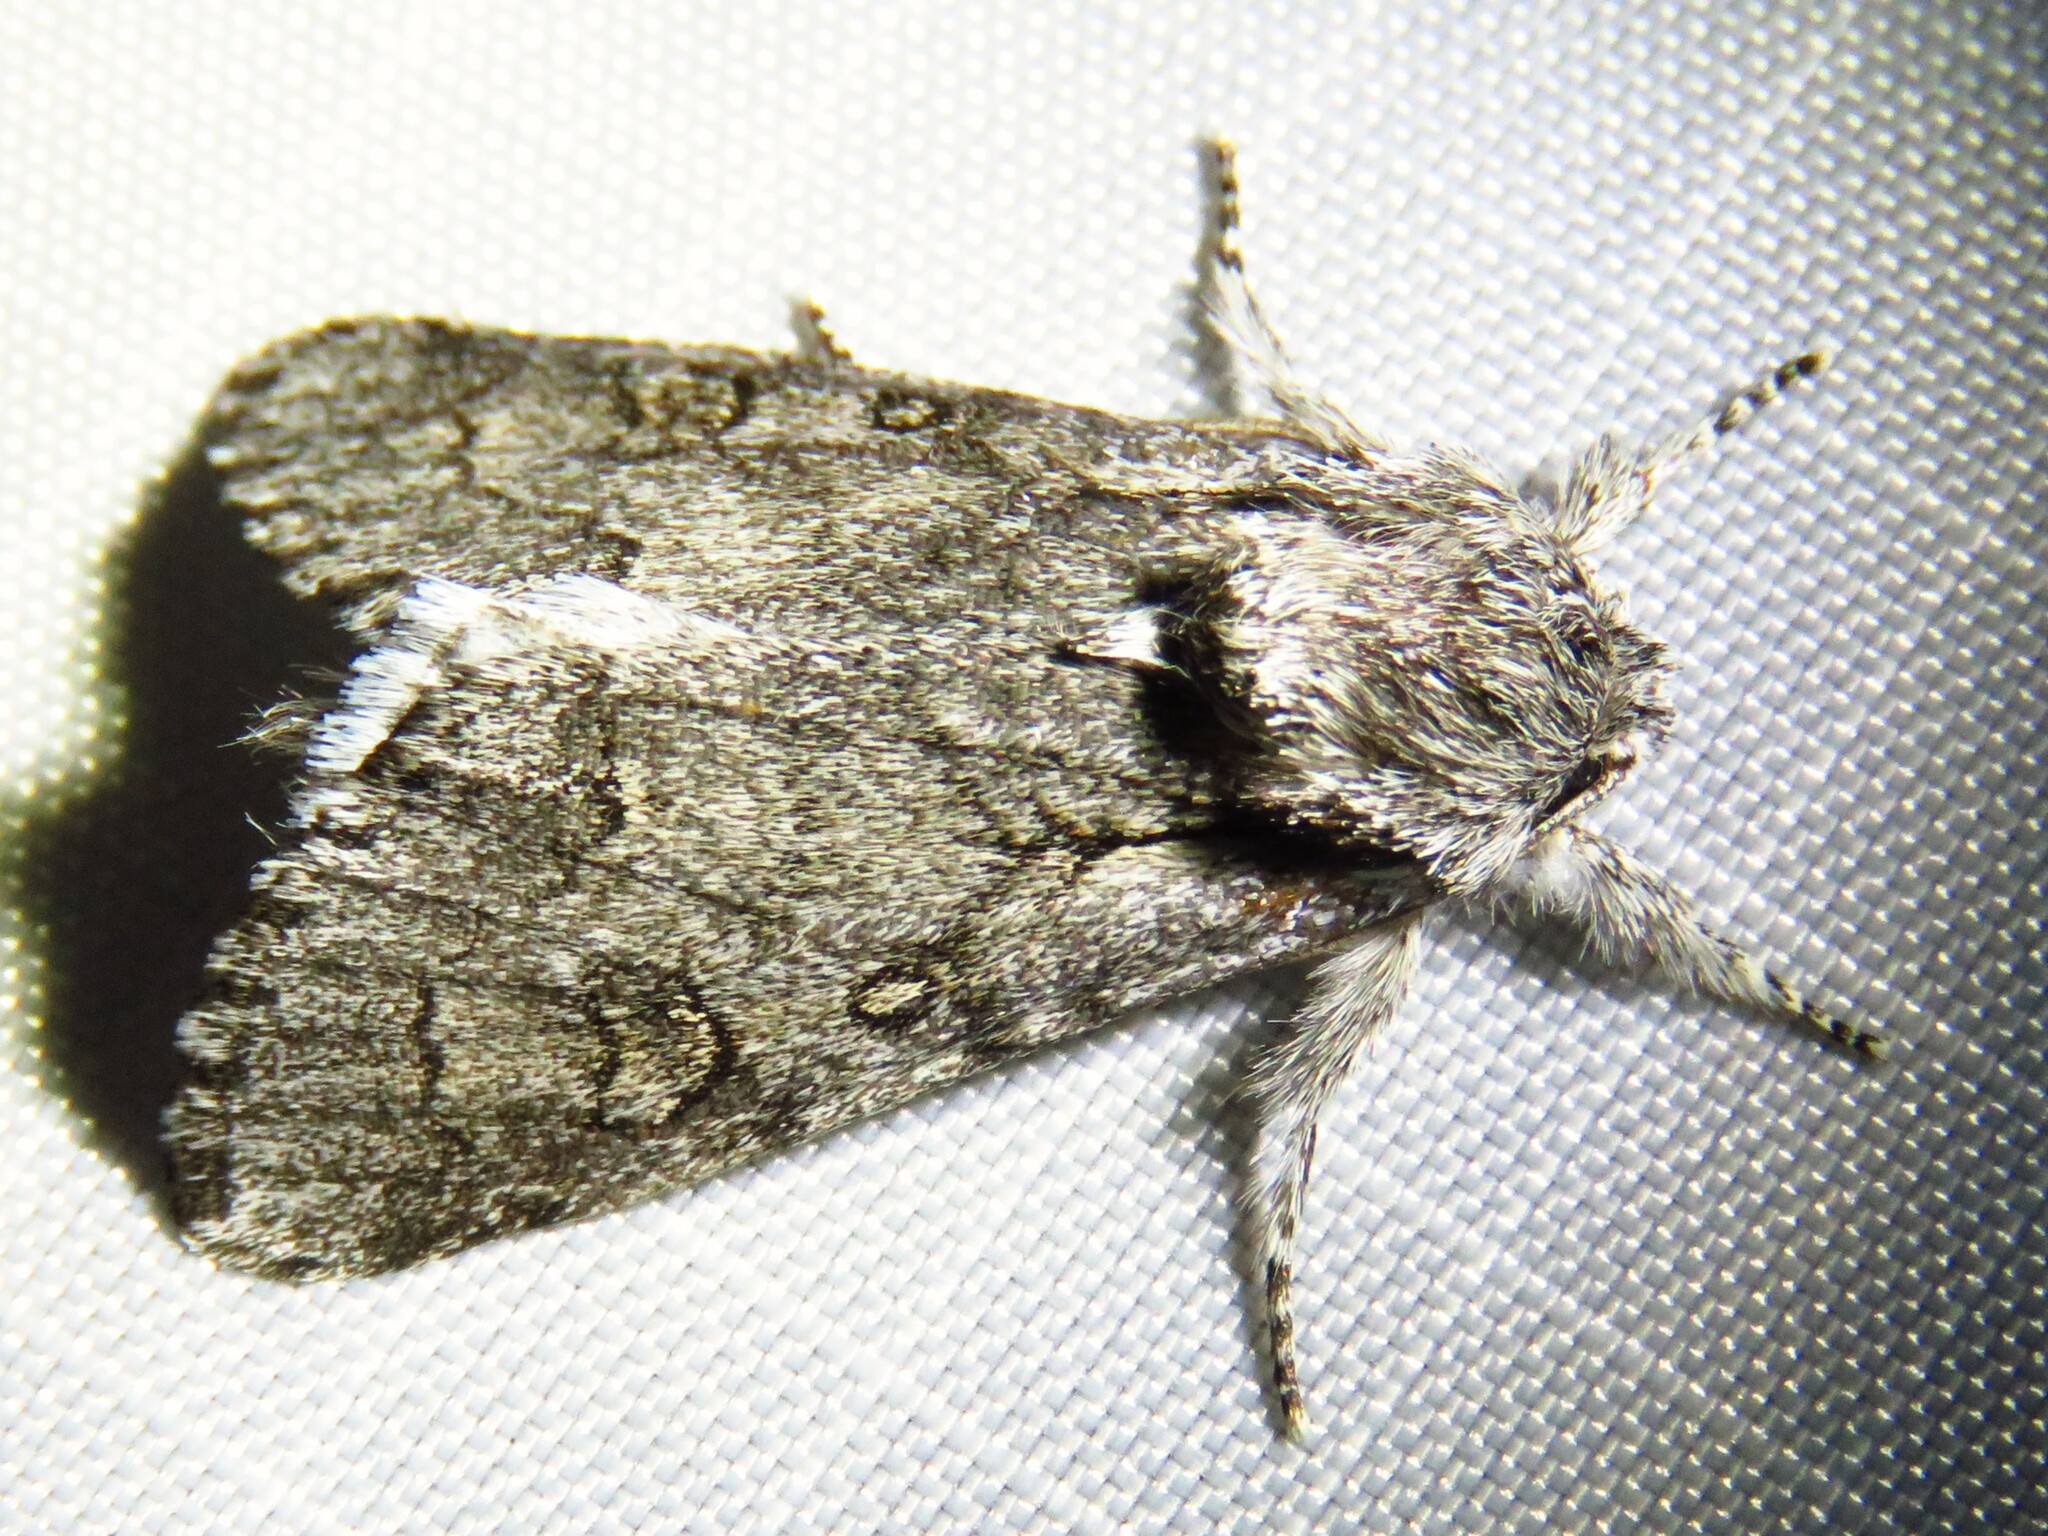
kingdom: Animalia
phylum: Arthropoda
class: Insecta
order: Lepidoptera
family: Noctuidae
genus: Acronicta
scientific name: Acronicta tota
